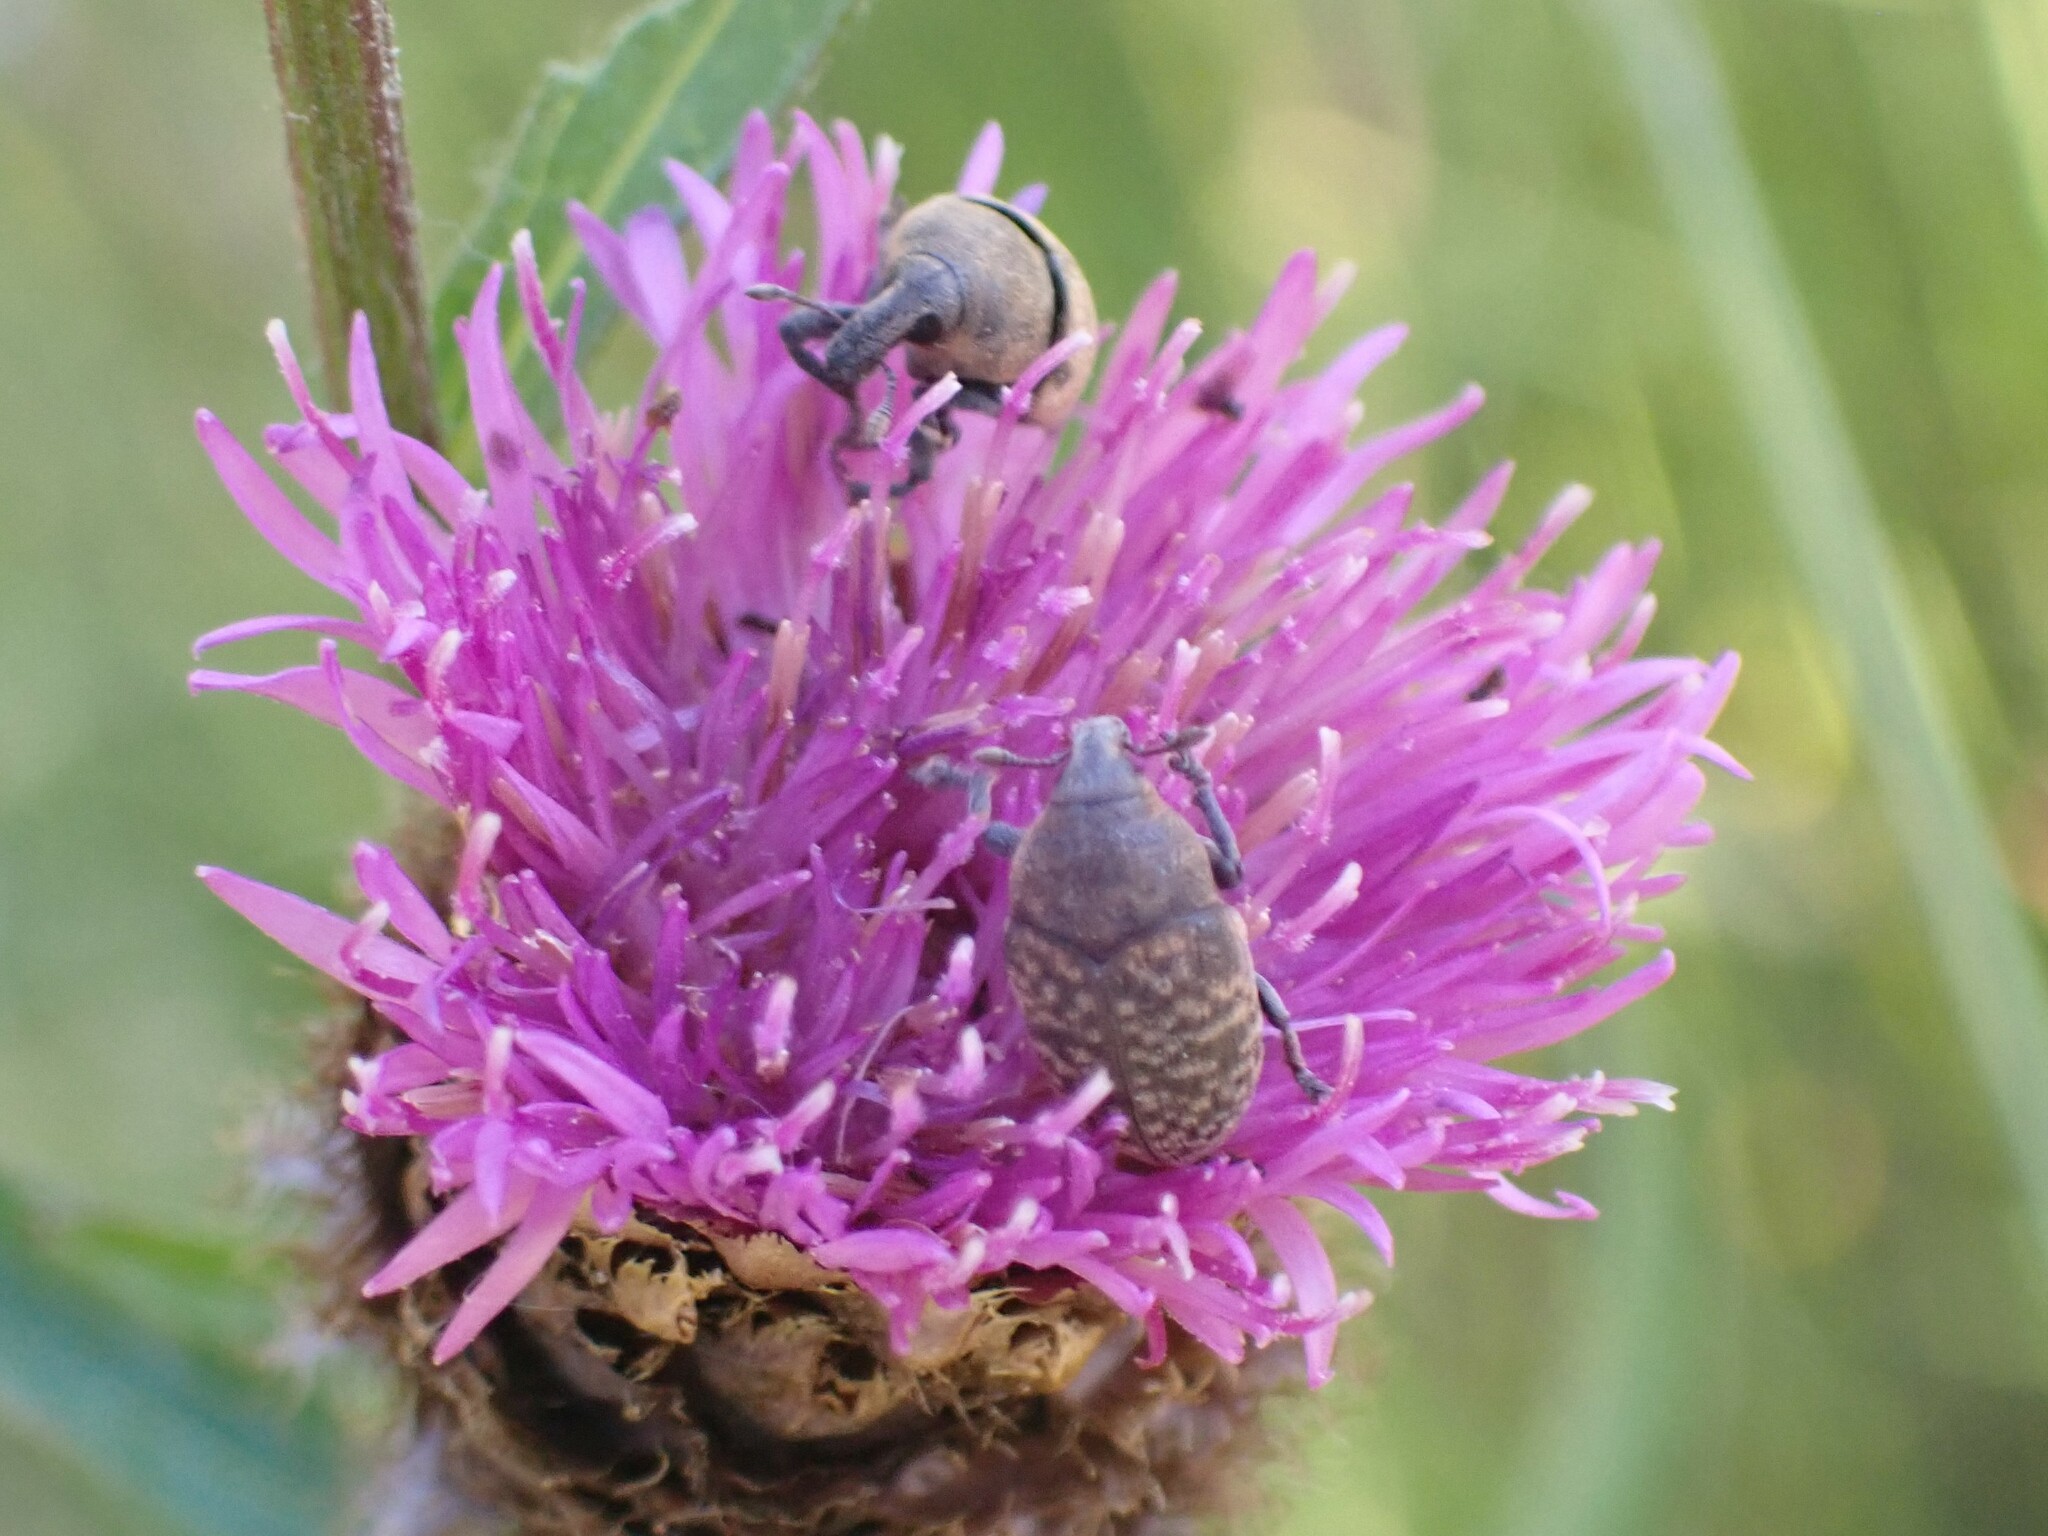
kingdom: Animalia
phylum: Arthropoda
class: Insecta
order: Coleoptera
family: Curculionidae
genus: Larinus
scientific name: Larinus obtusus
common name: Weevil
